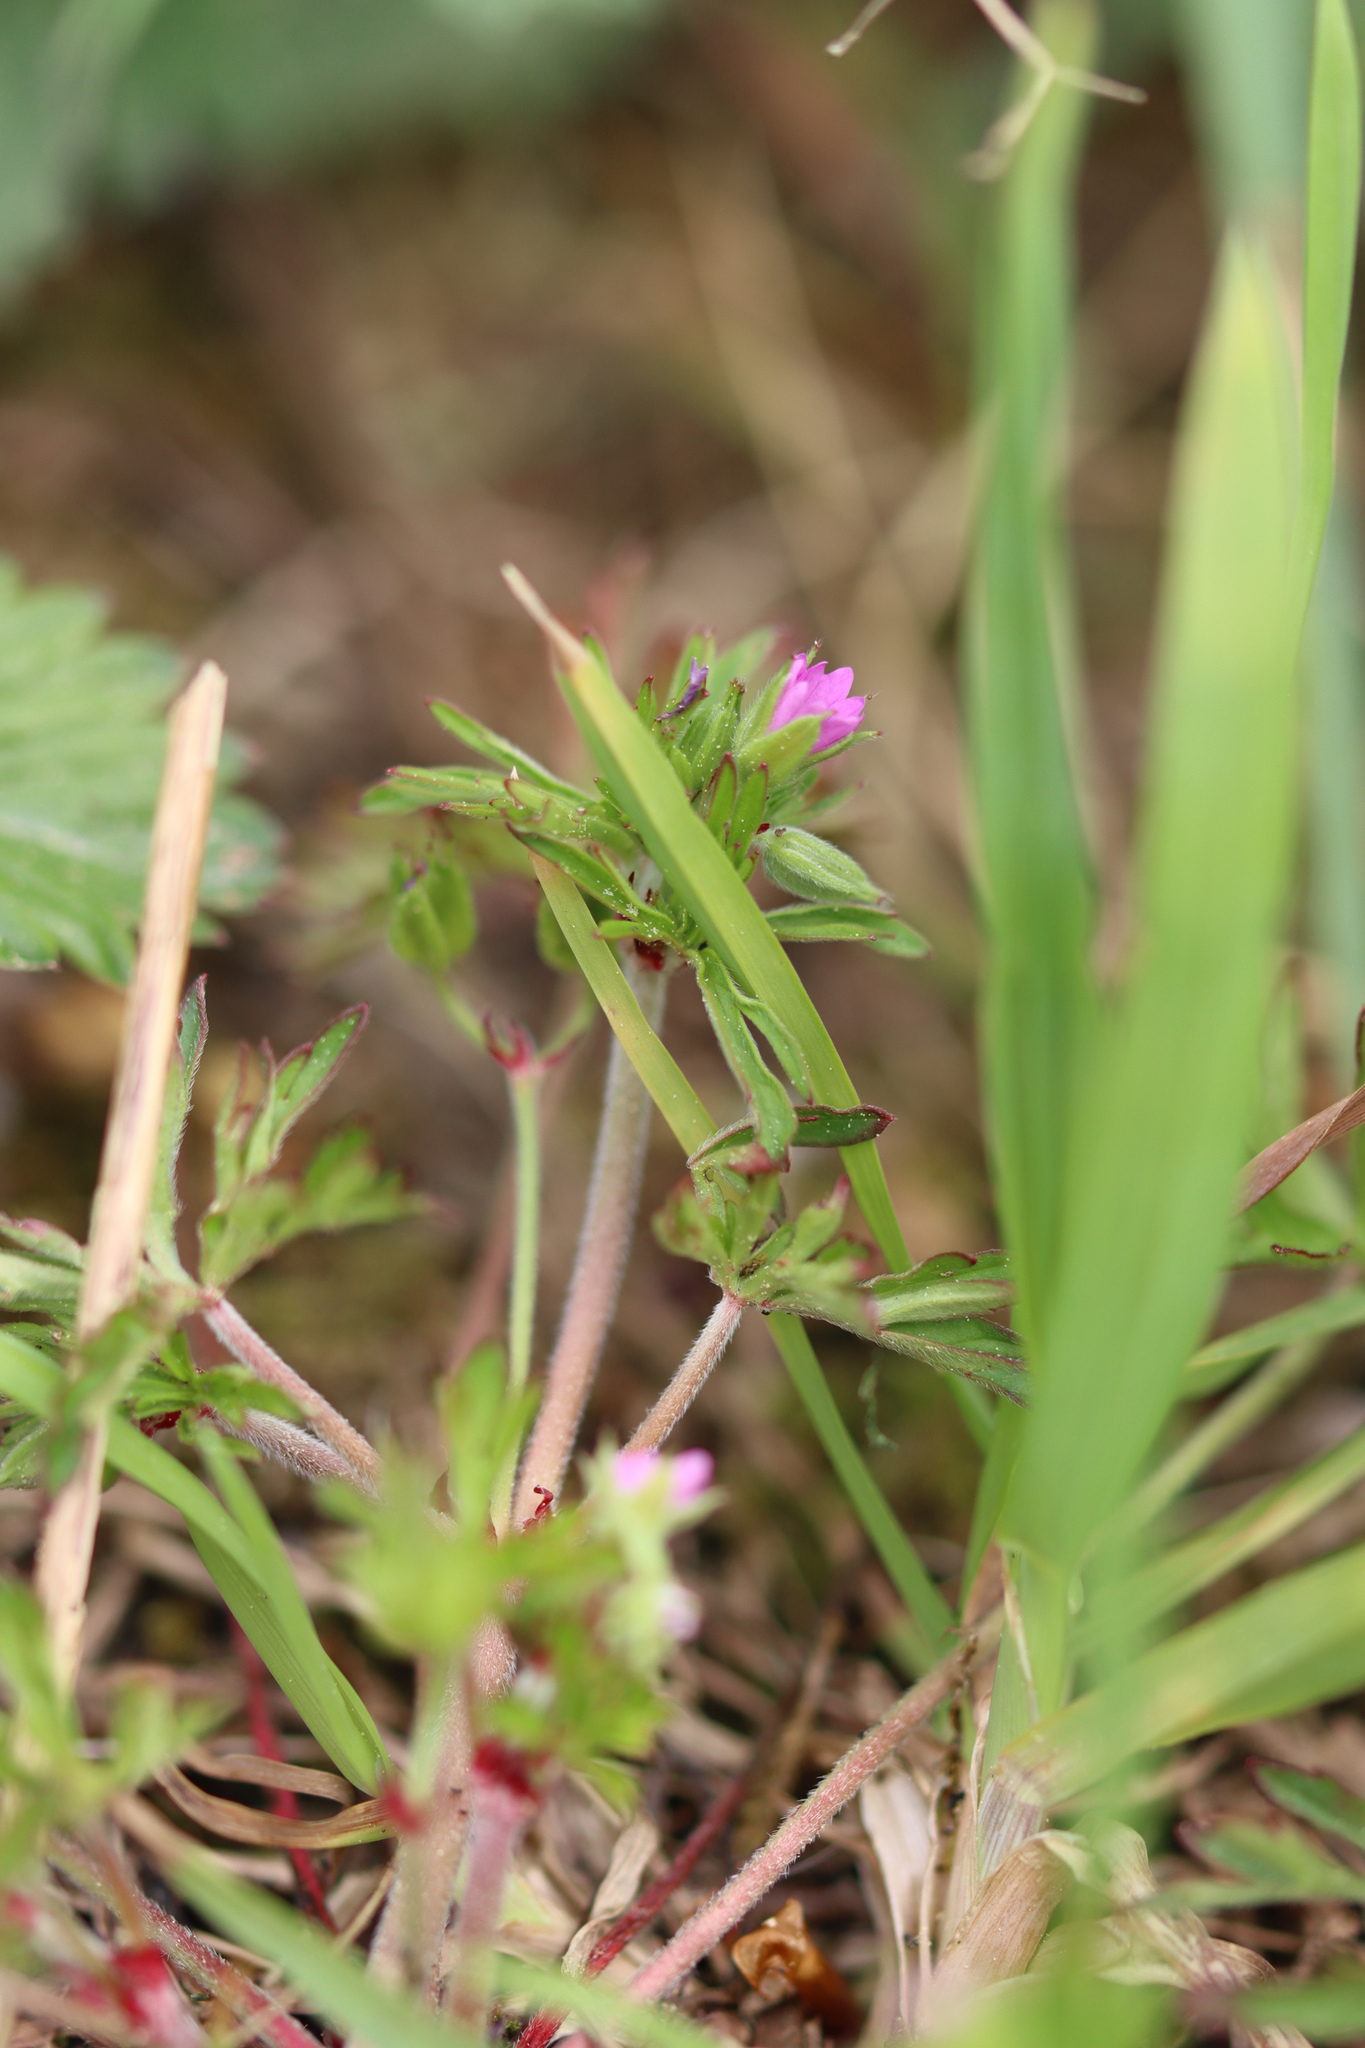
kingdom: Plantae
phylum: Tracheophyta
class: Magnoliopsida
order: Geraniales
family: Geraniaceae
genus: Geranium
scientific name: Geranium dissectum
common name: Cut-leaved crane's-bill
